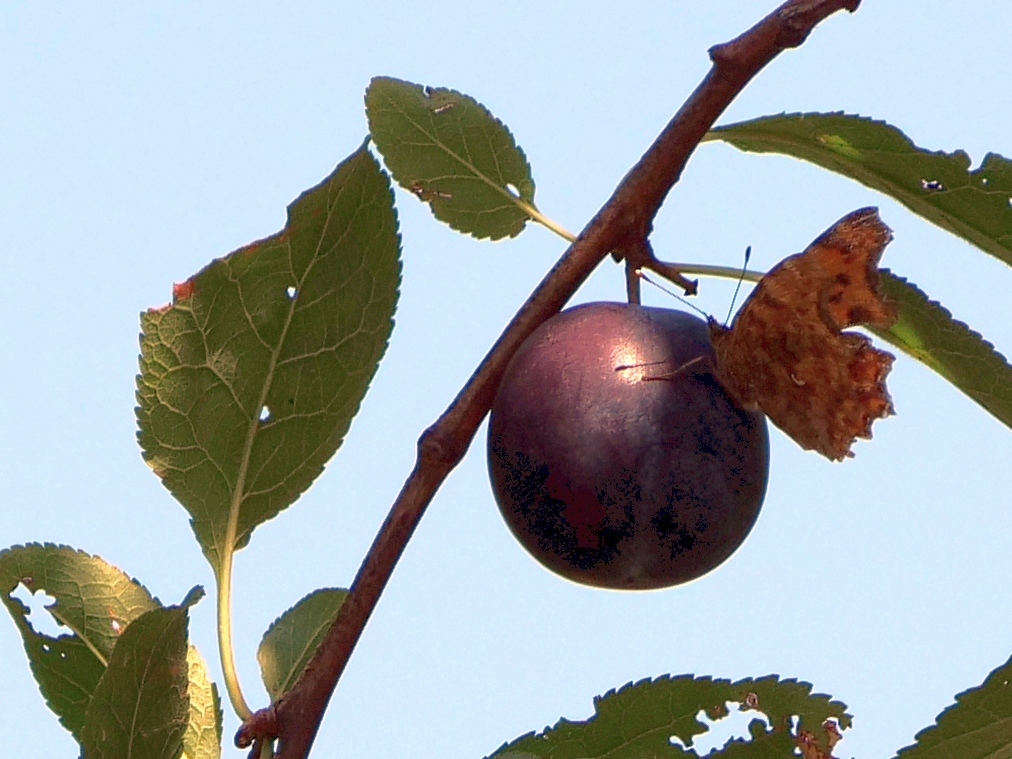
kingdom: Animalia
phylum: Arthropoda
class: Insecta
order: Lepidoptera
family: Nymphalidae
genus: Polygonia
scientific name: Polygonia c-album
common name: Comma
